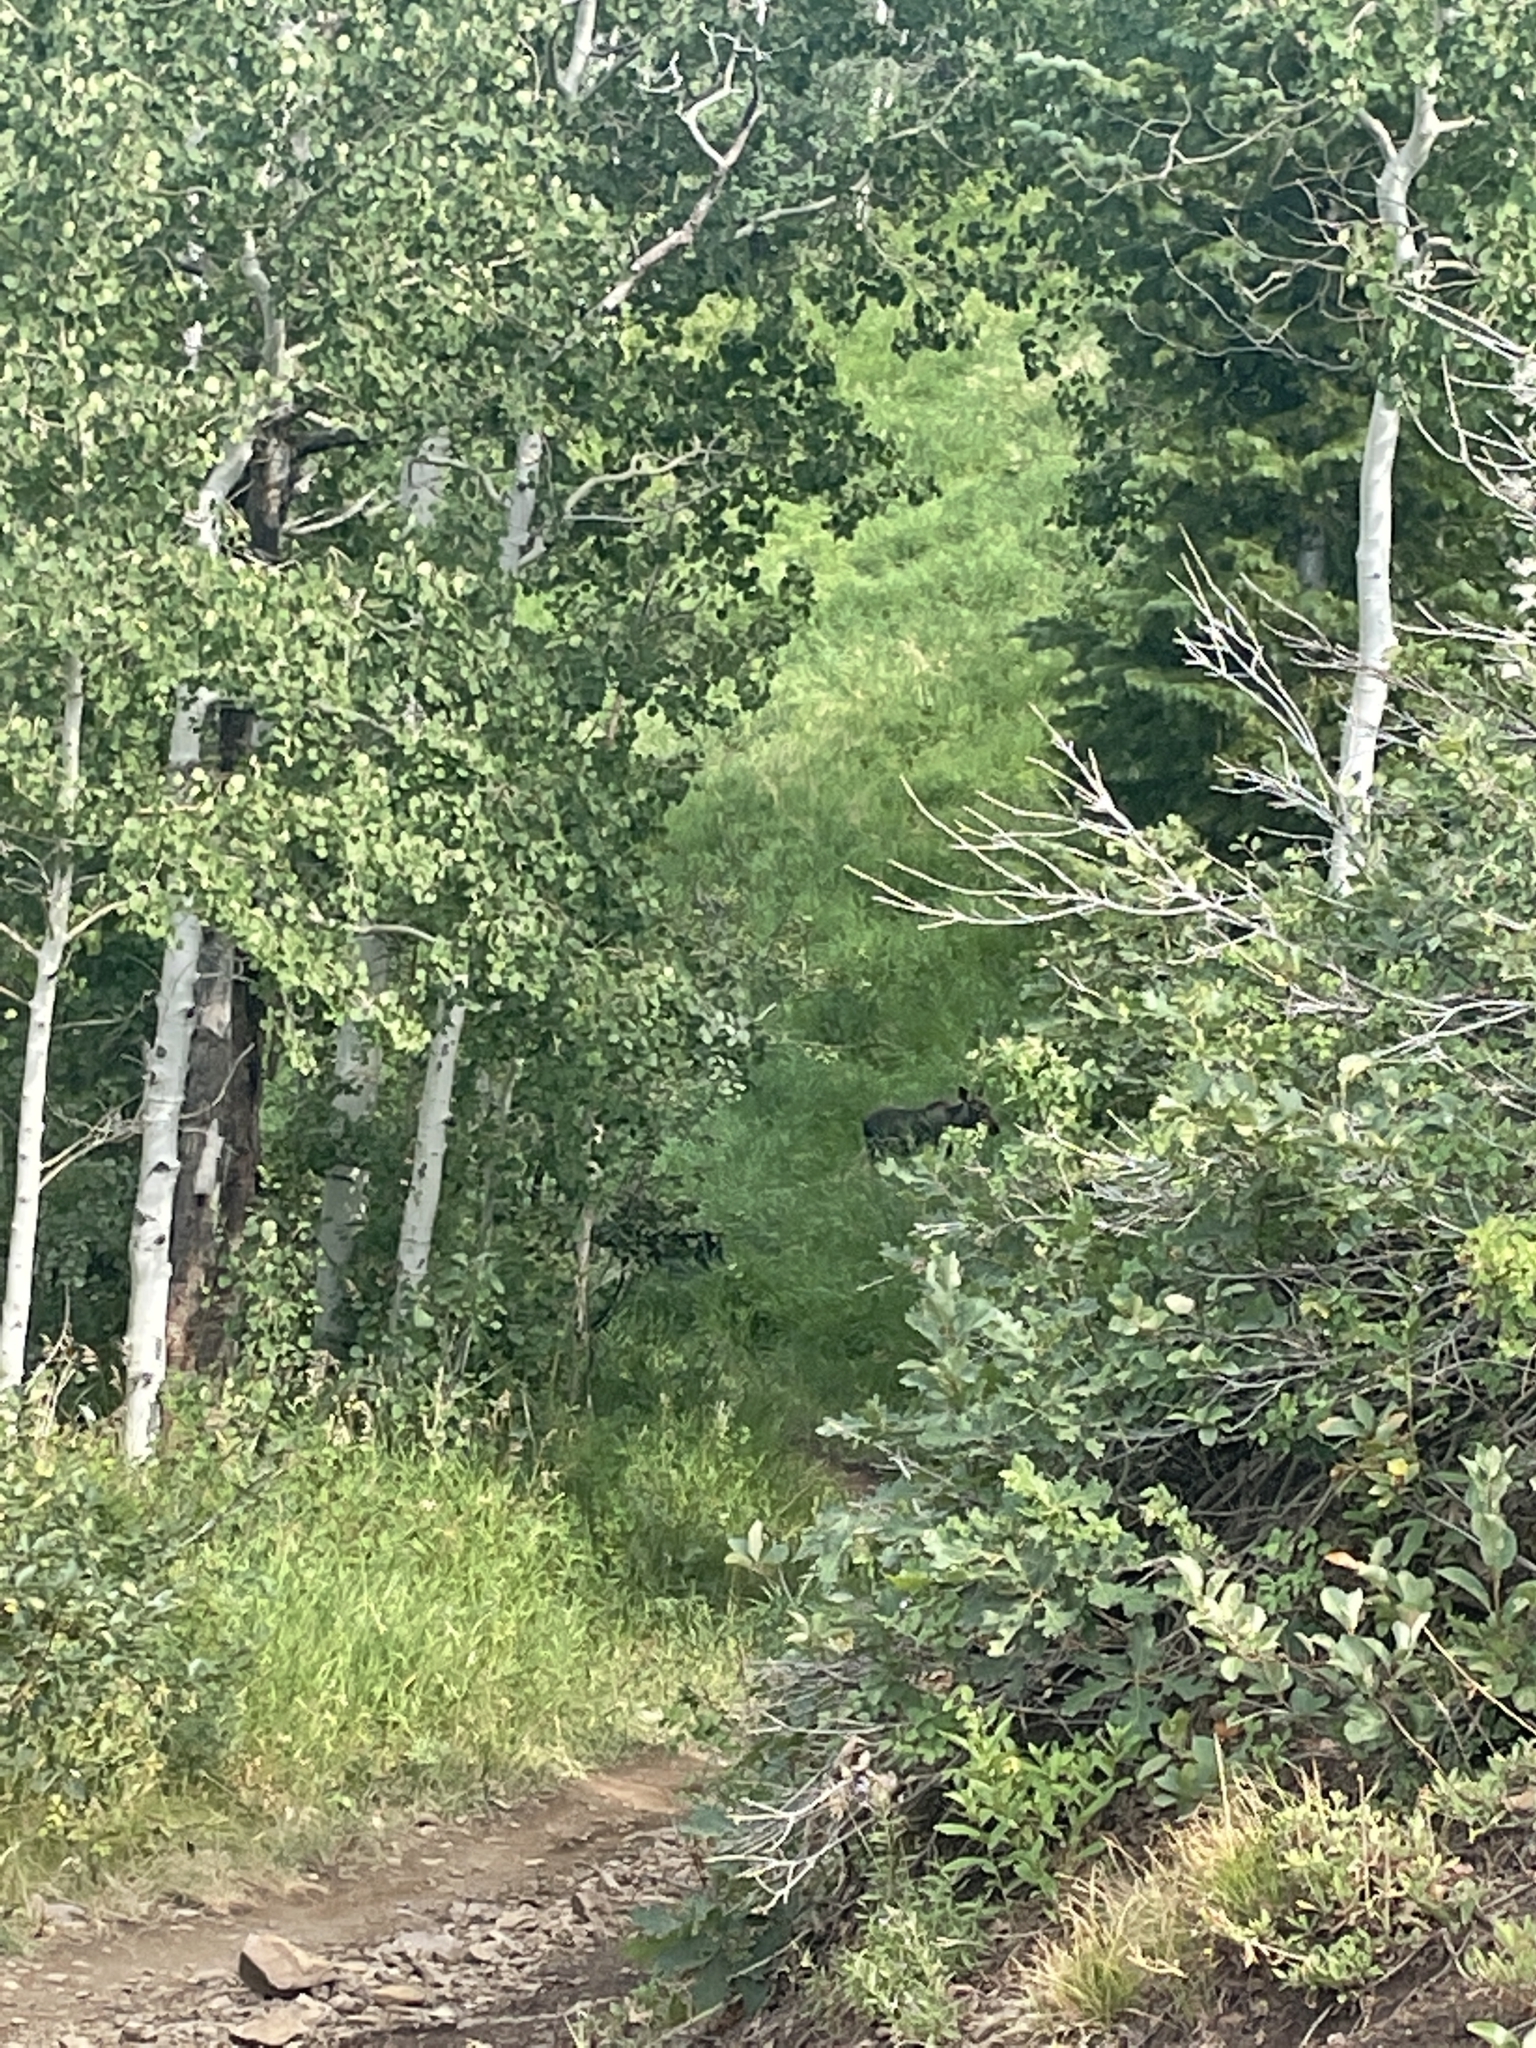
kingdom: Animalia
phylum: Chordata
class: Mammalia
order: Artiodactyla
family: Cervidae
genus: Alces
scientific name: Alces alces
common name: Moose
